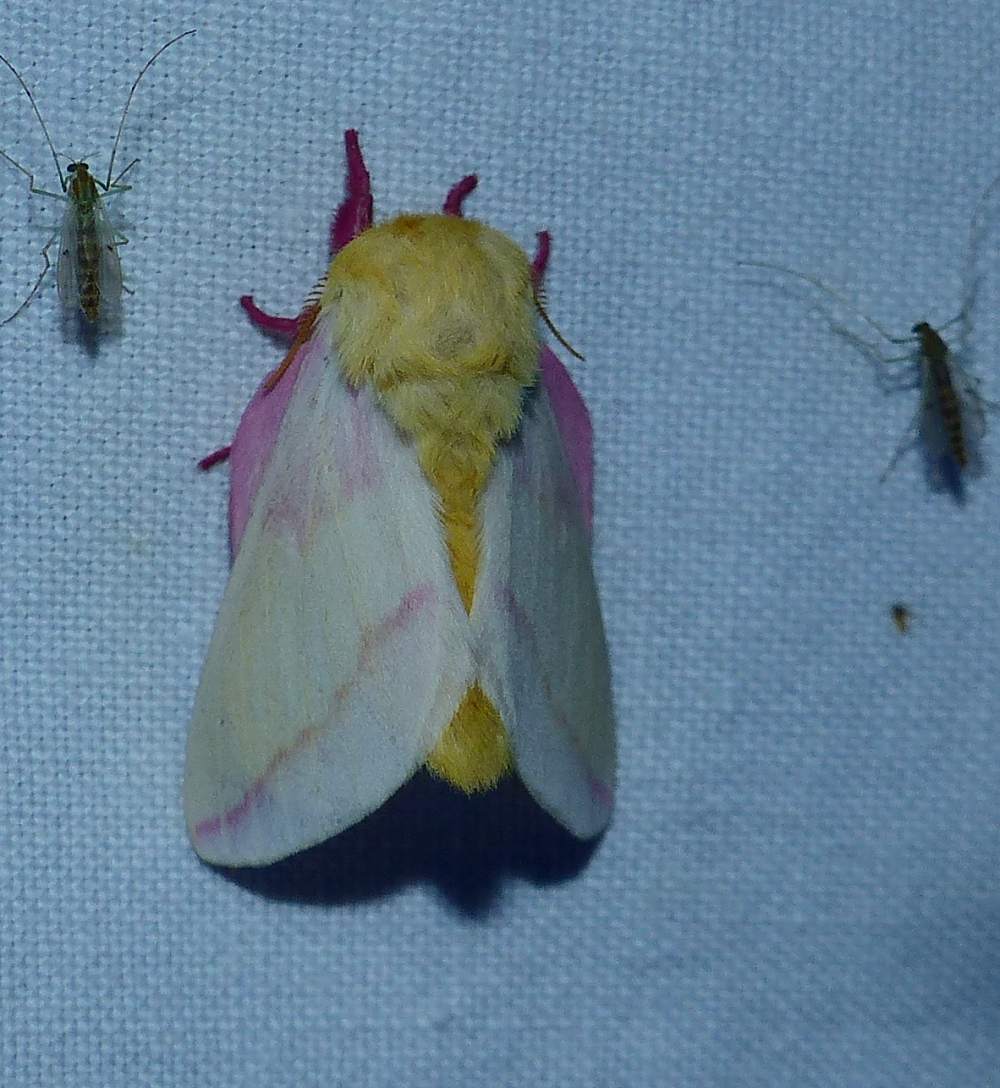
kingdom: Animalia
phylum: Arthropoda
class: Insecta
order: Lepidoptera
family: Saturniidae
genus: Dryocampa
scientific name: Dryocampa rubicunda
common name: Rosy maple moth
